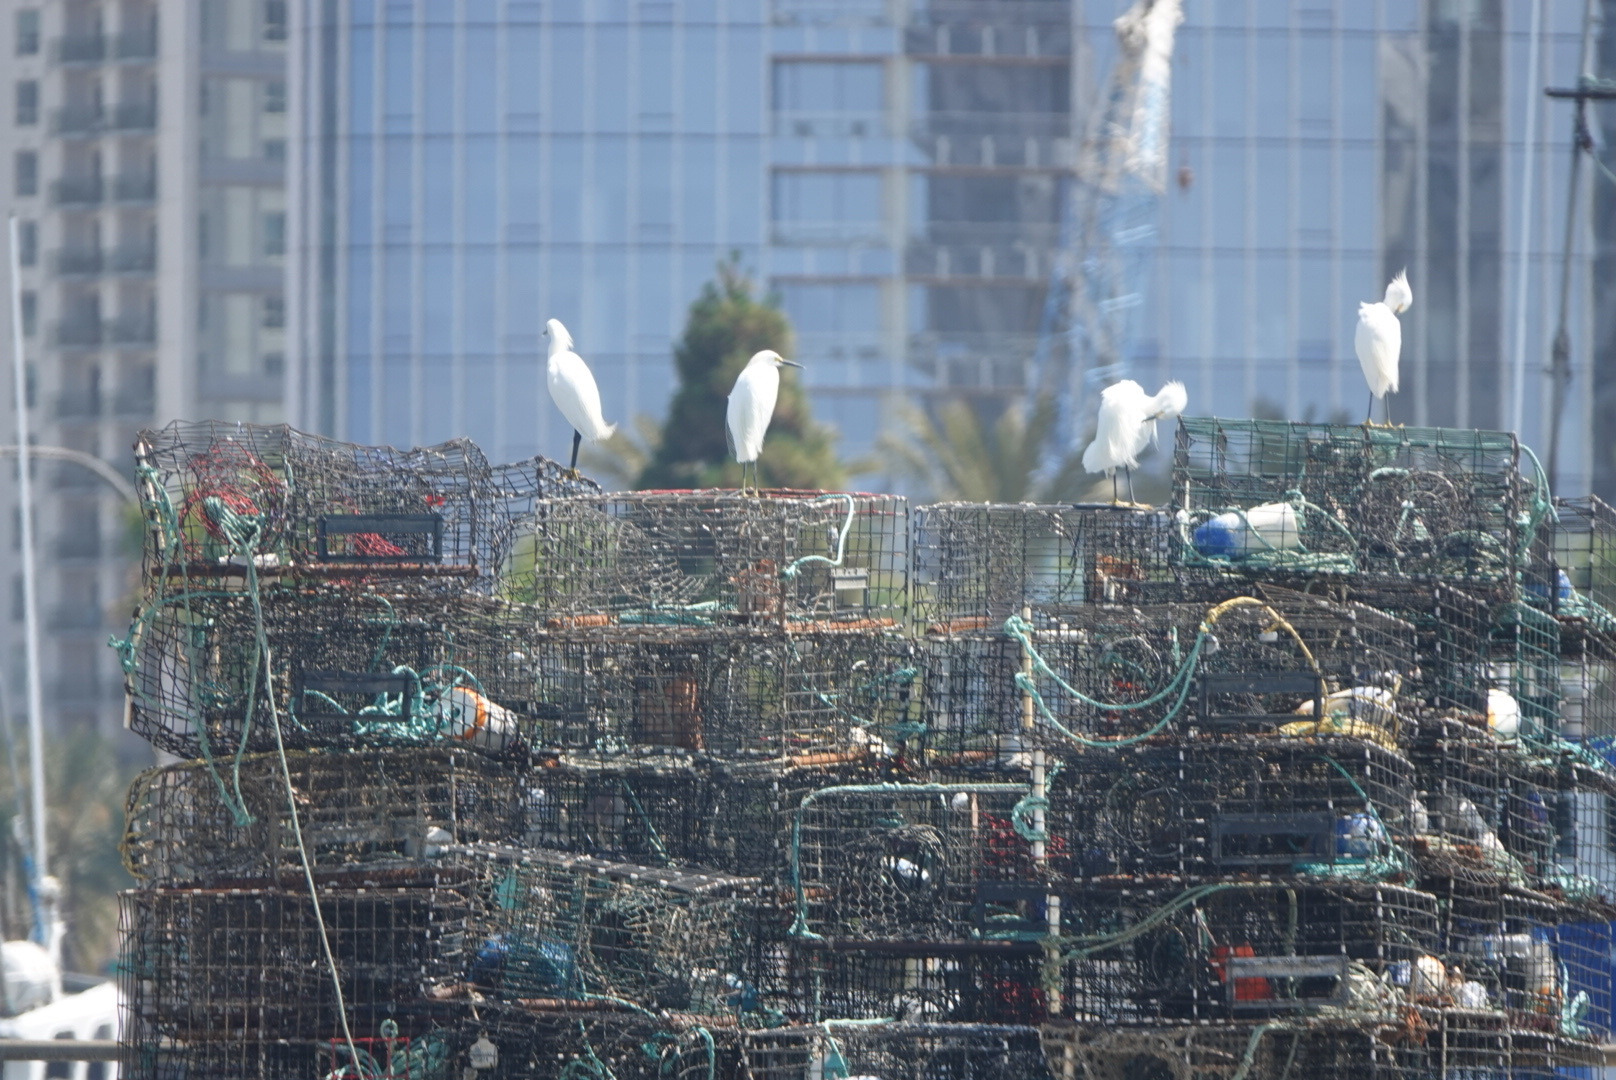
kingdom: Animalia
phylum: Chordata
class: Aves
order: Pelecaniformes
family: Ardeidae
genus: Egretta
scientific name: Egretta thula
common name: Snowy egret
